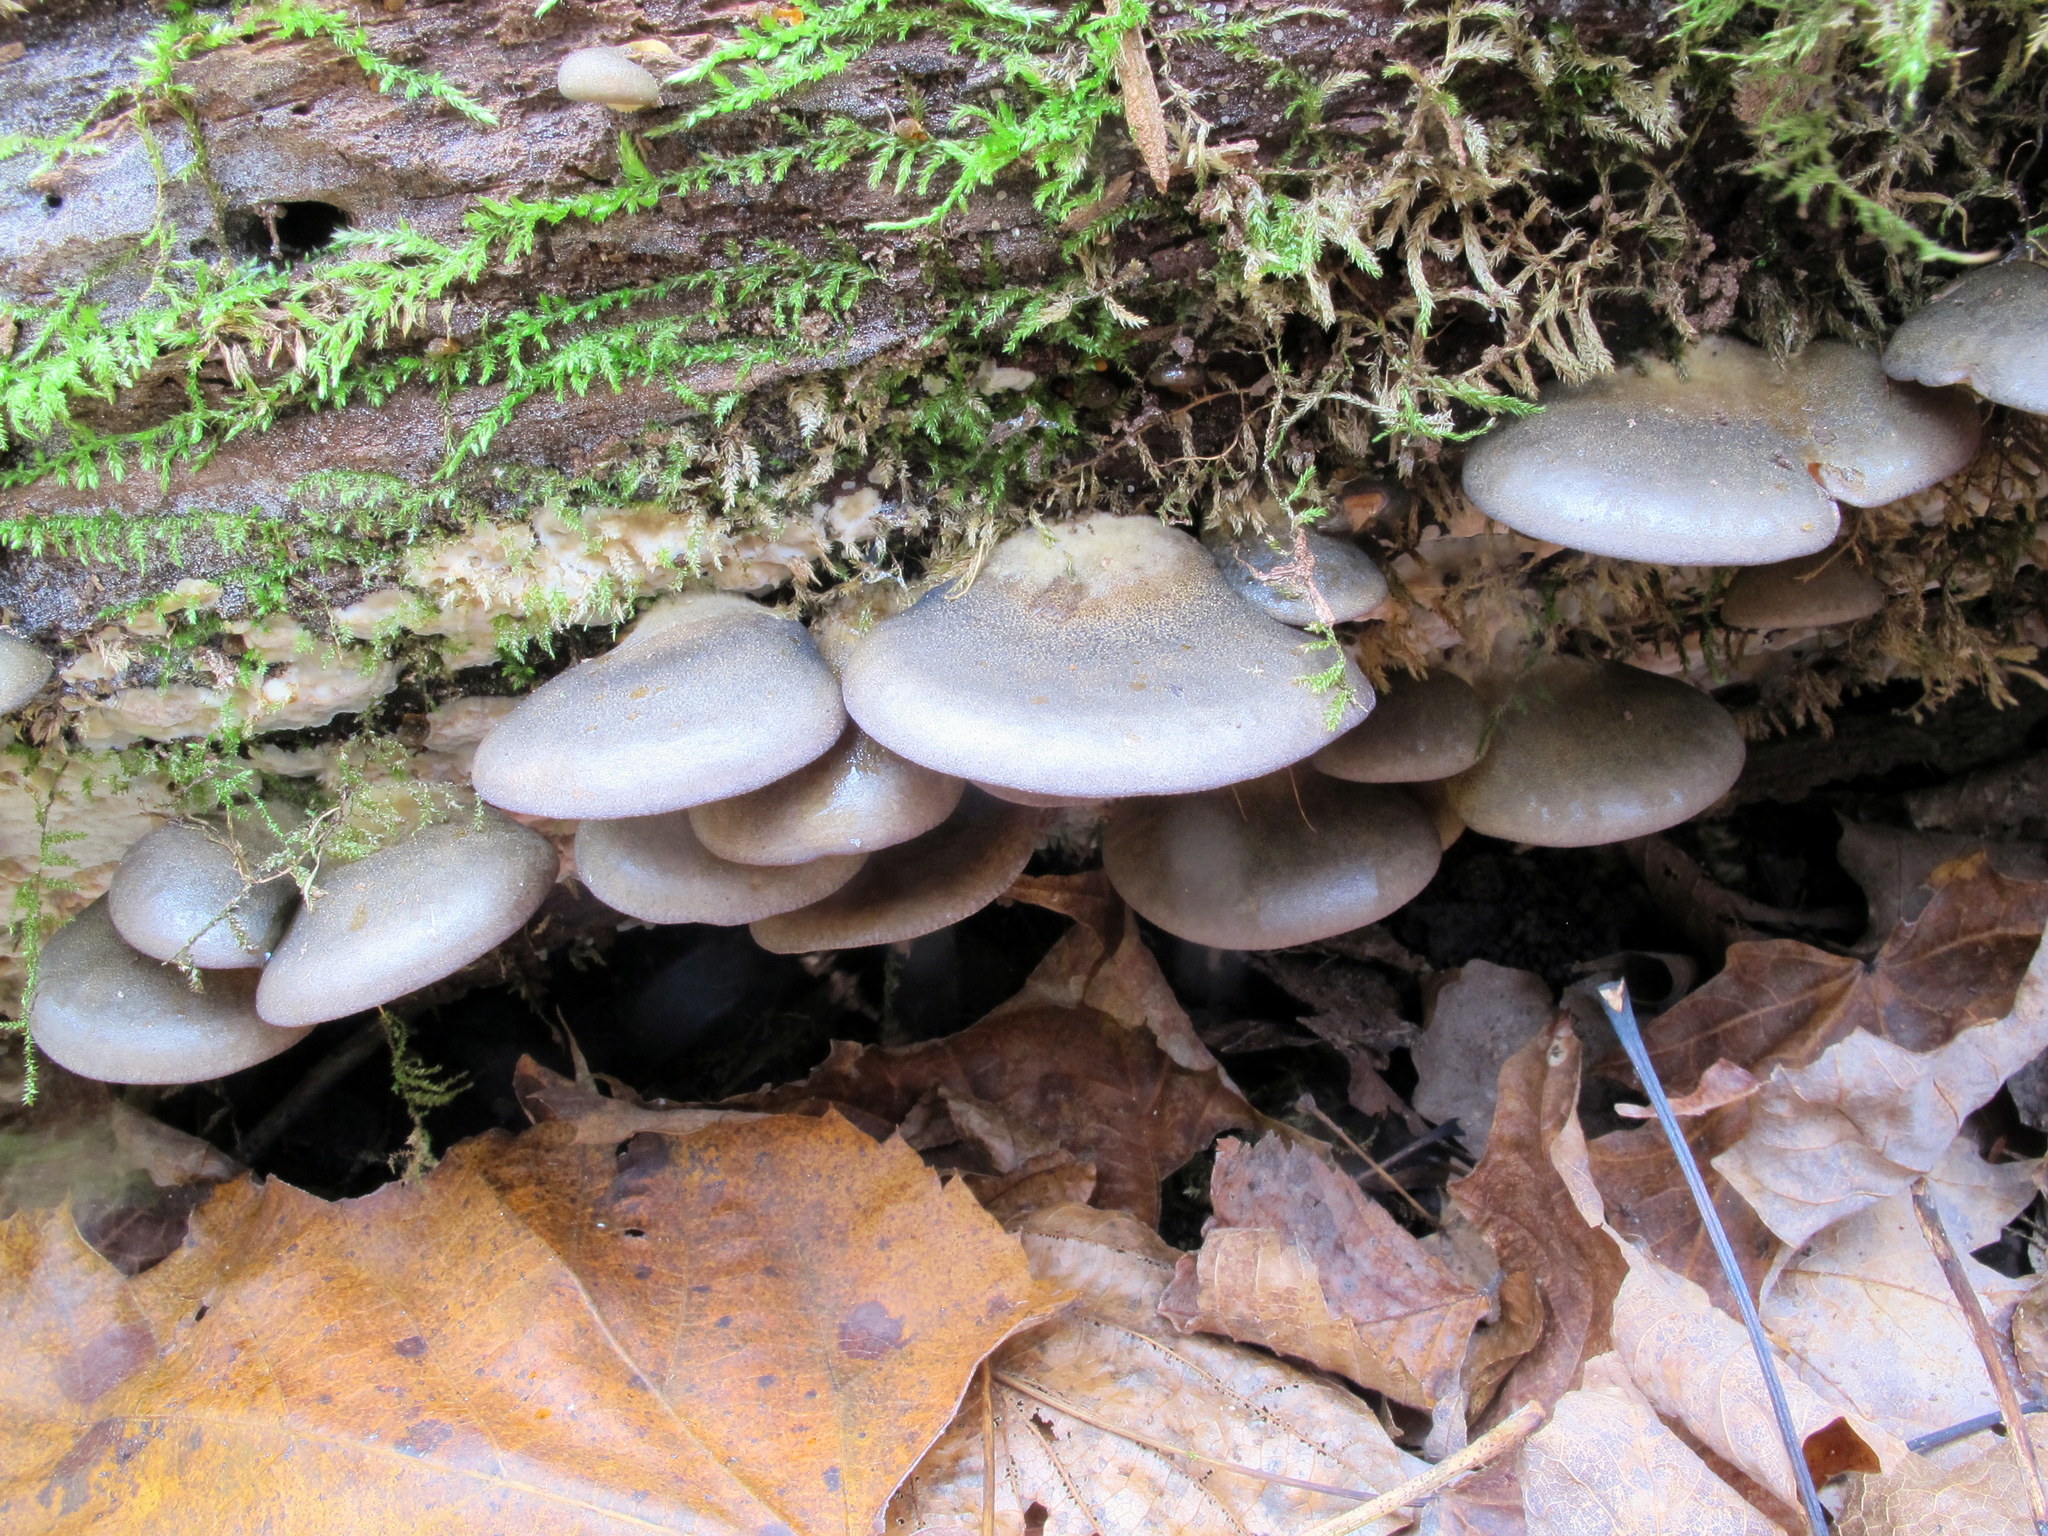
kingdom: Fungi
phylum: Basidiomycota
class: Agaricomycetes
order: Agaricales
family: Sarcomyxaceae
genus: Sarcomyxa
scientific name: Sarcomyxa serotina
